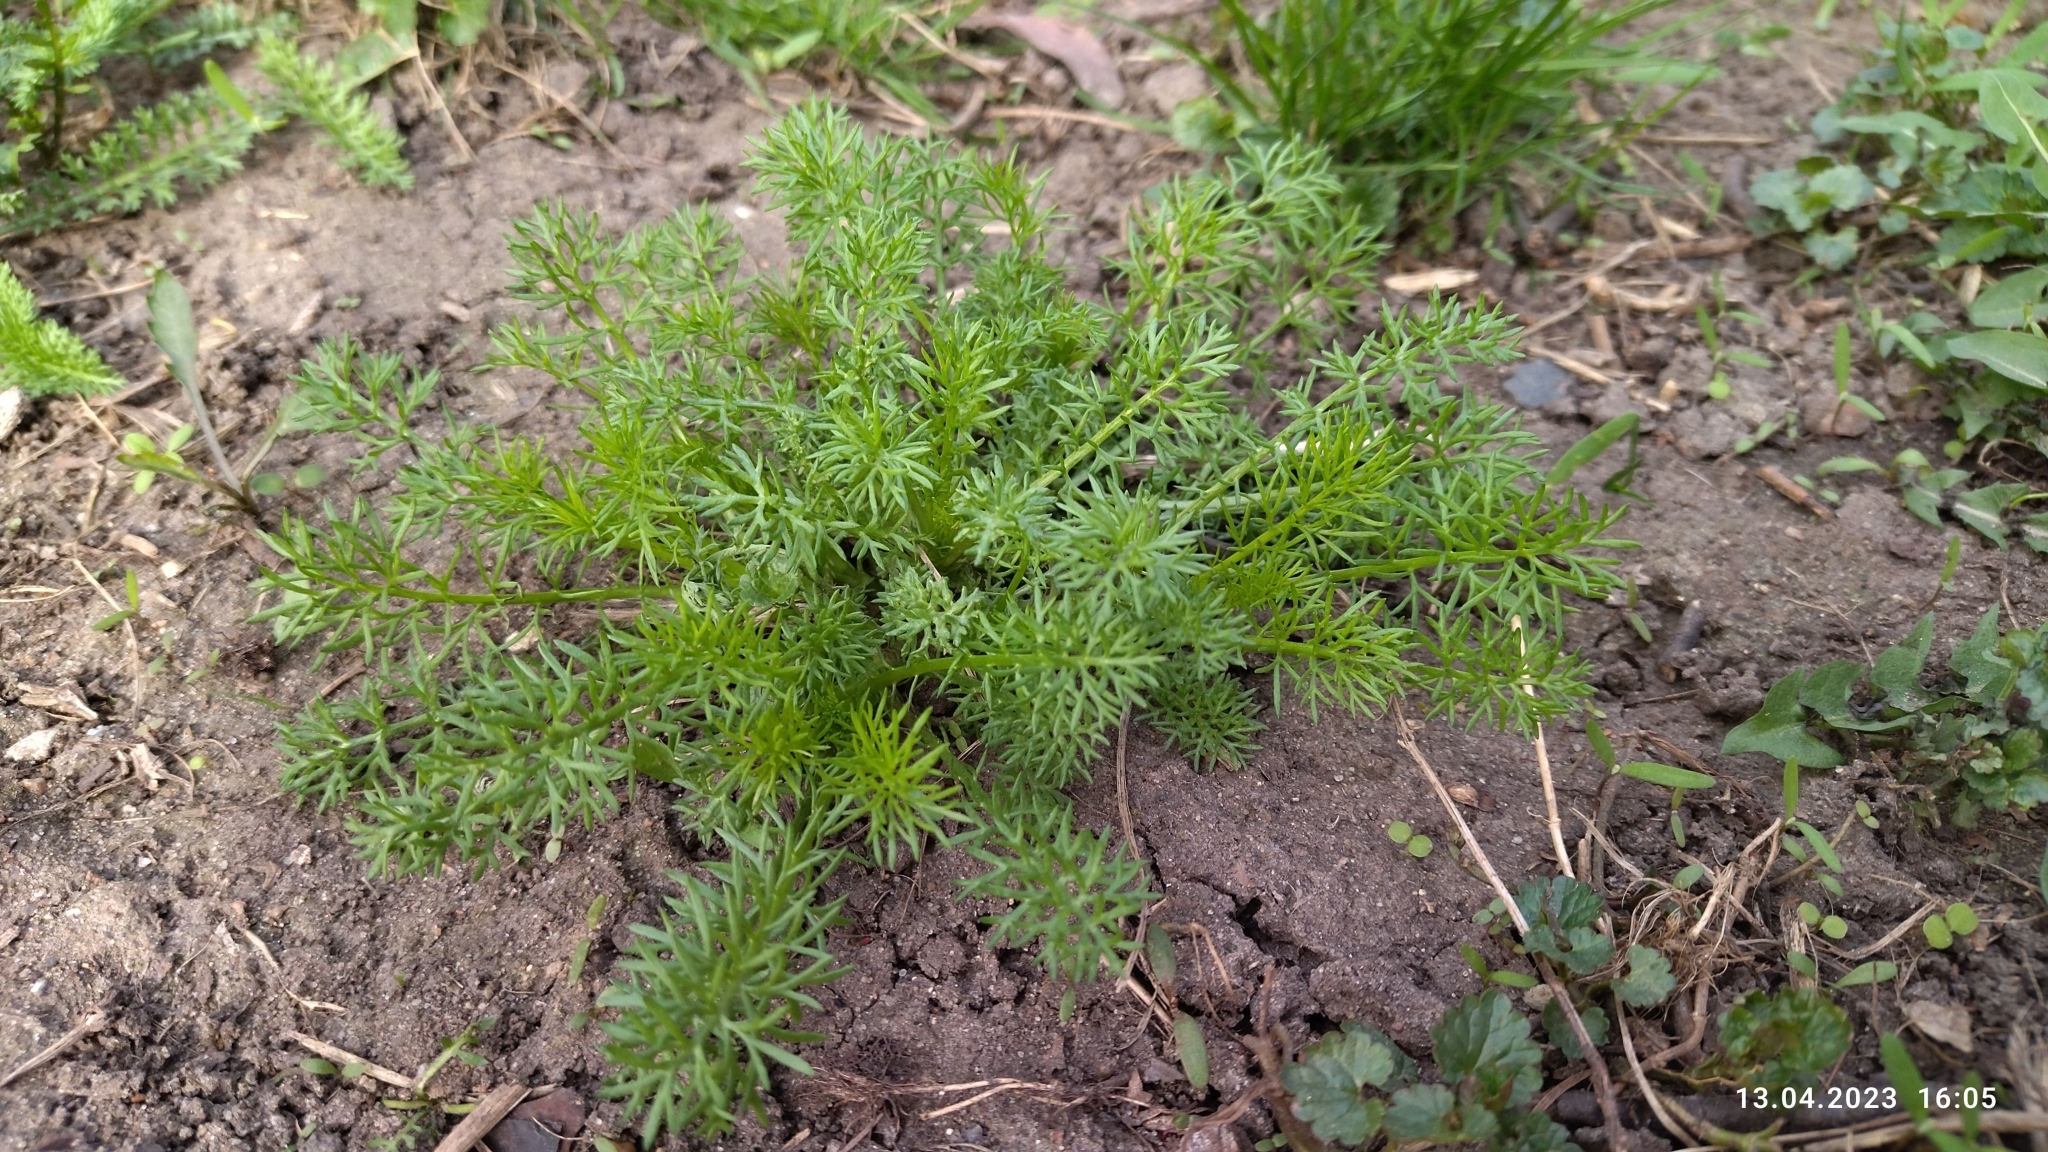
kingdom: Plantae
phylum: Tracheophyta
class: Magnoliopsida
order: Asterales
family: Asteraceae
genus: Tripleurospermum
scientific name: Tripleurospermum inodorum
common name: Scentless mayweed
